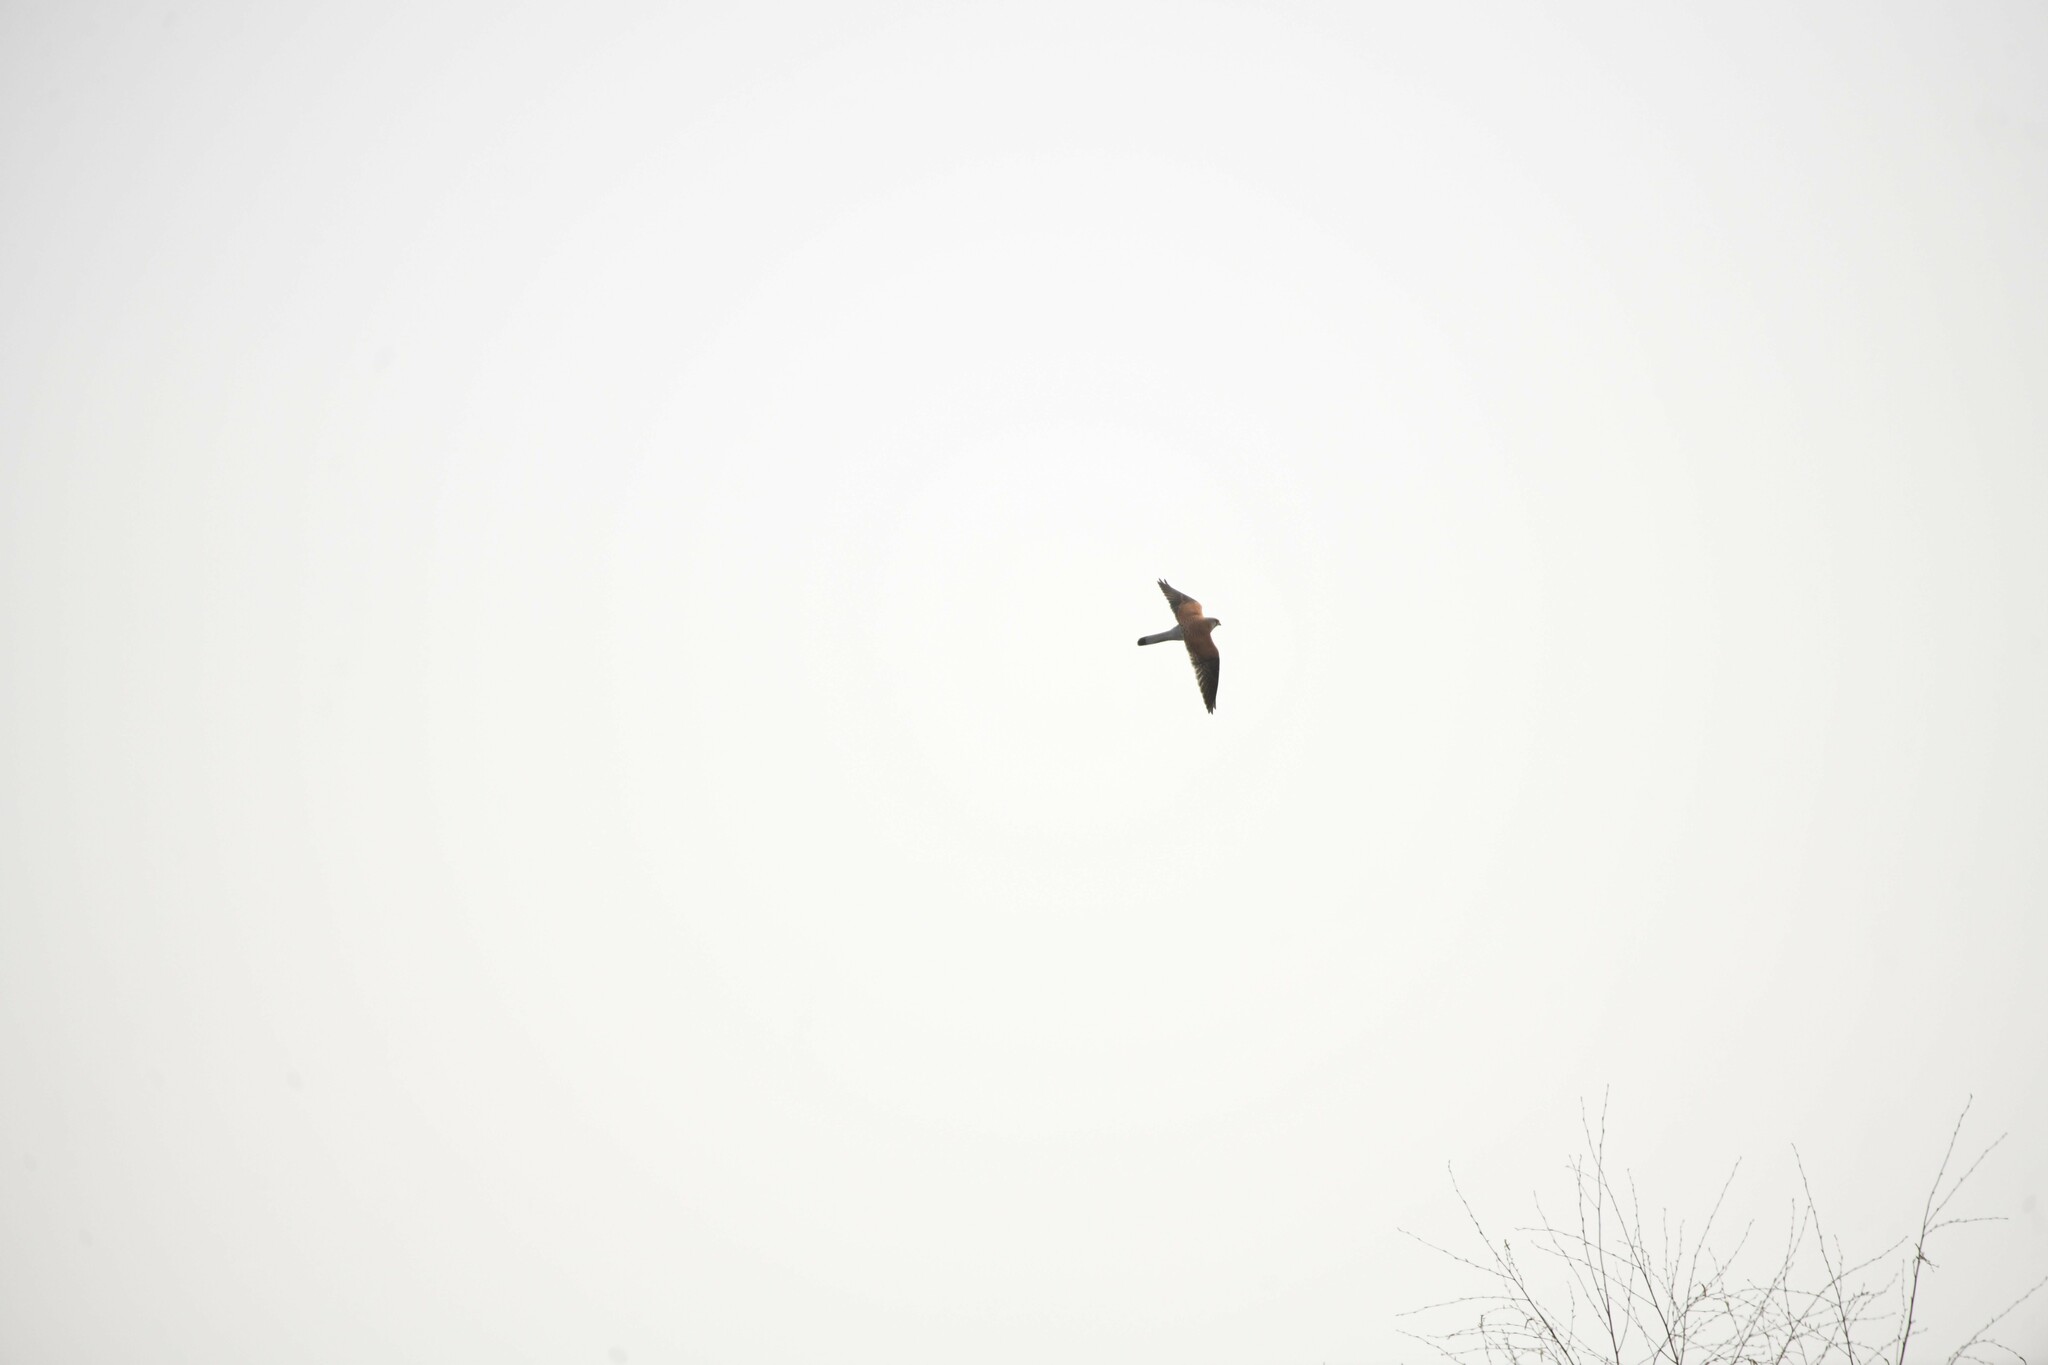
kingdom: Animalia
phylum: Chordata
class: Aves
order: Falconiformes
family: Falconidae
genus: Falco
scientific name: Falco tinnunculus
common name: Common kestrel
